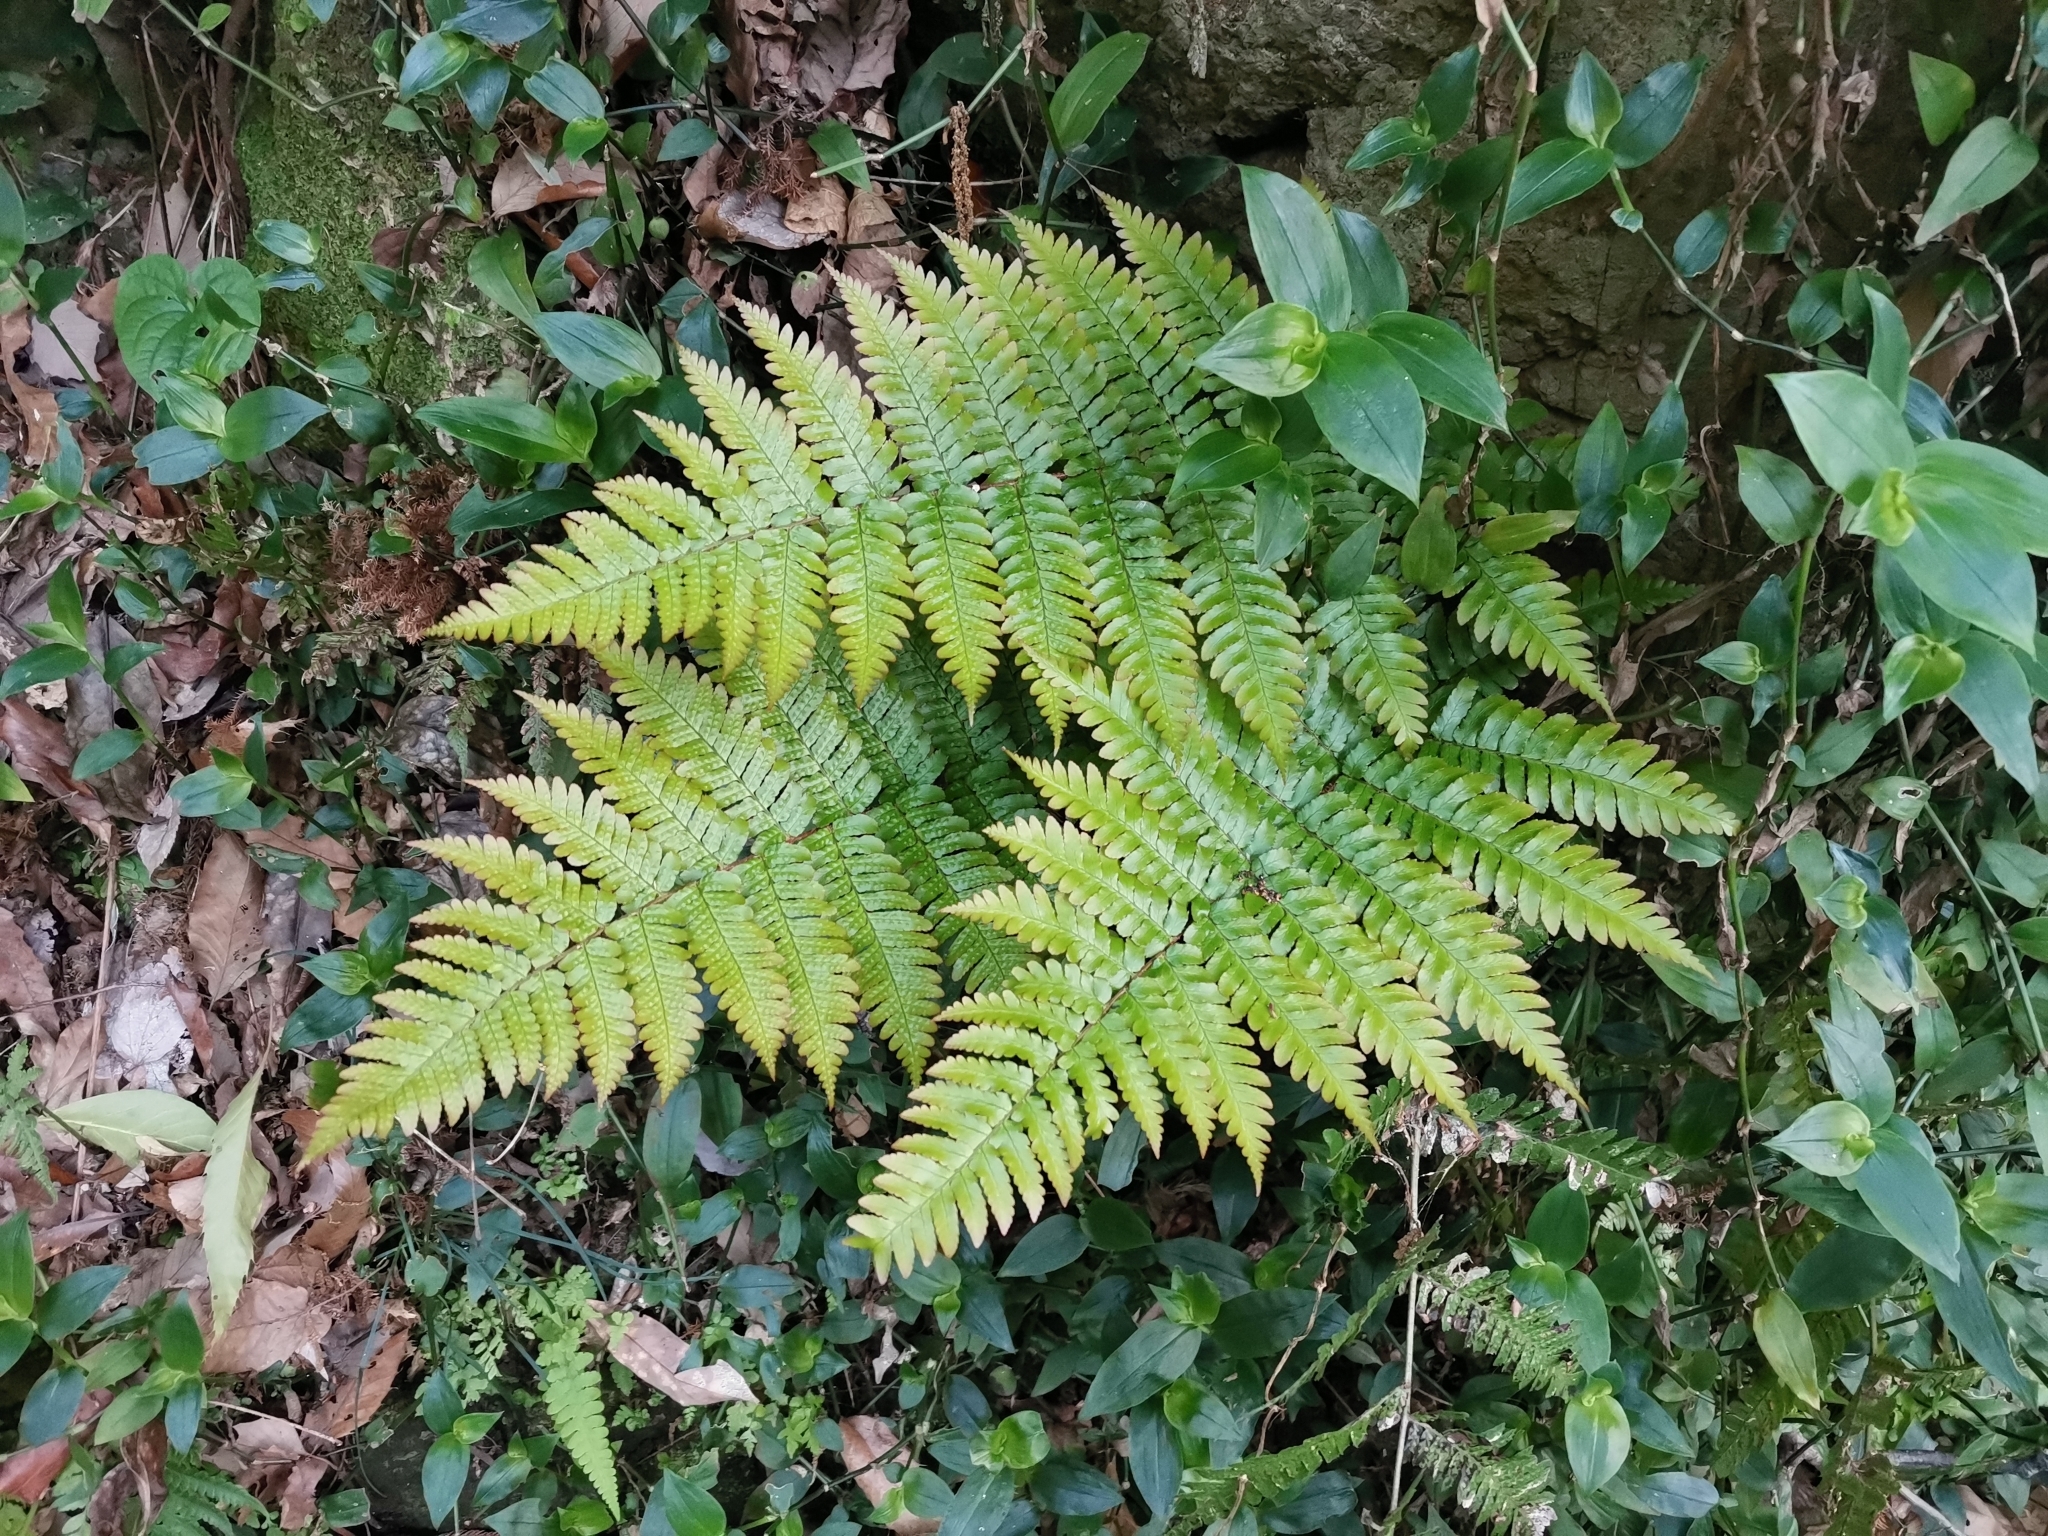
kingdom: Plantae
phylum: Tracheophyta
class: Polypodiopsida
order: Polypodiales
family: Dryopteridaceae
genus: Dryopteris
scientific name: Dryopteris erythrosora
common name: Autumn fern
